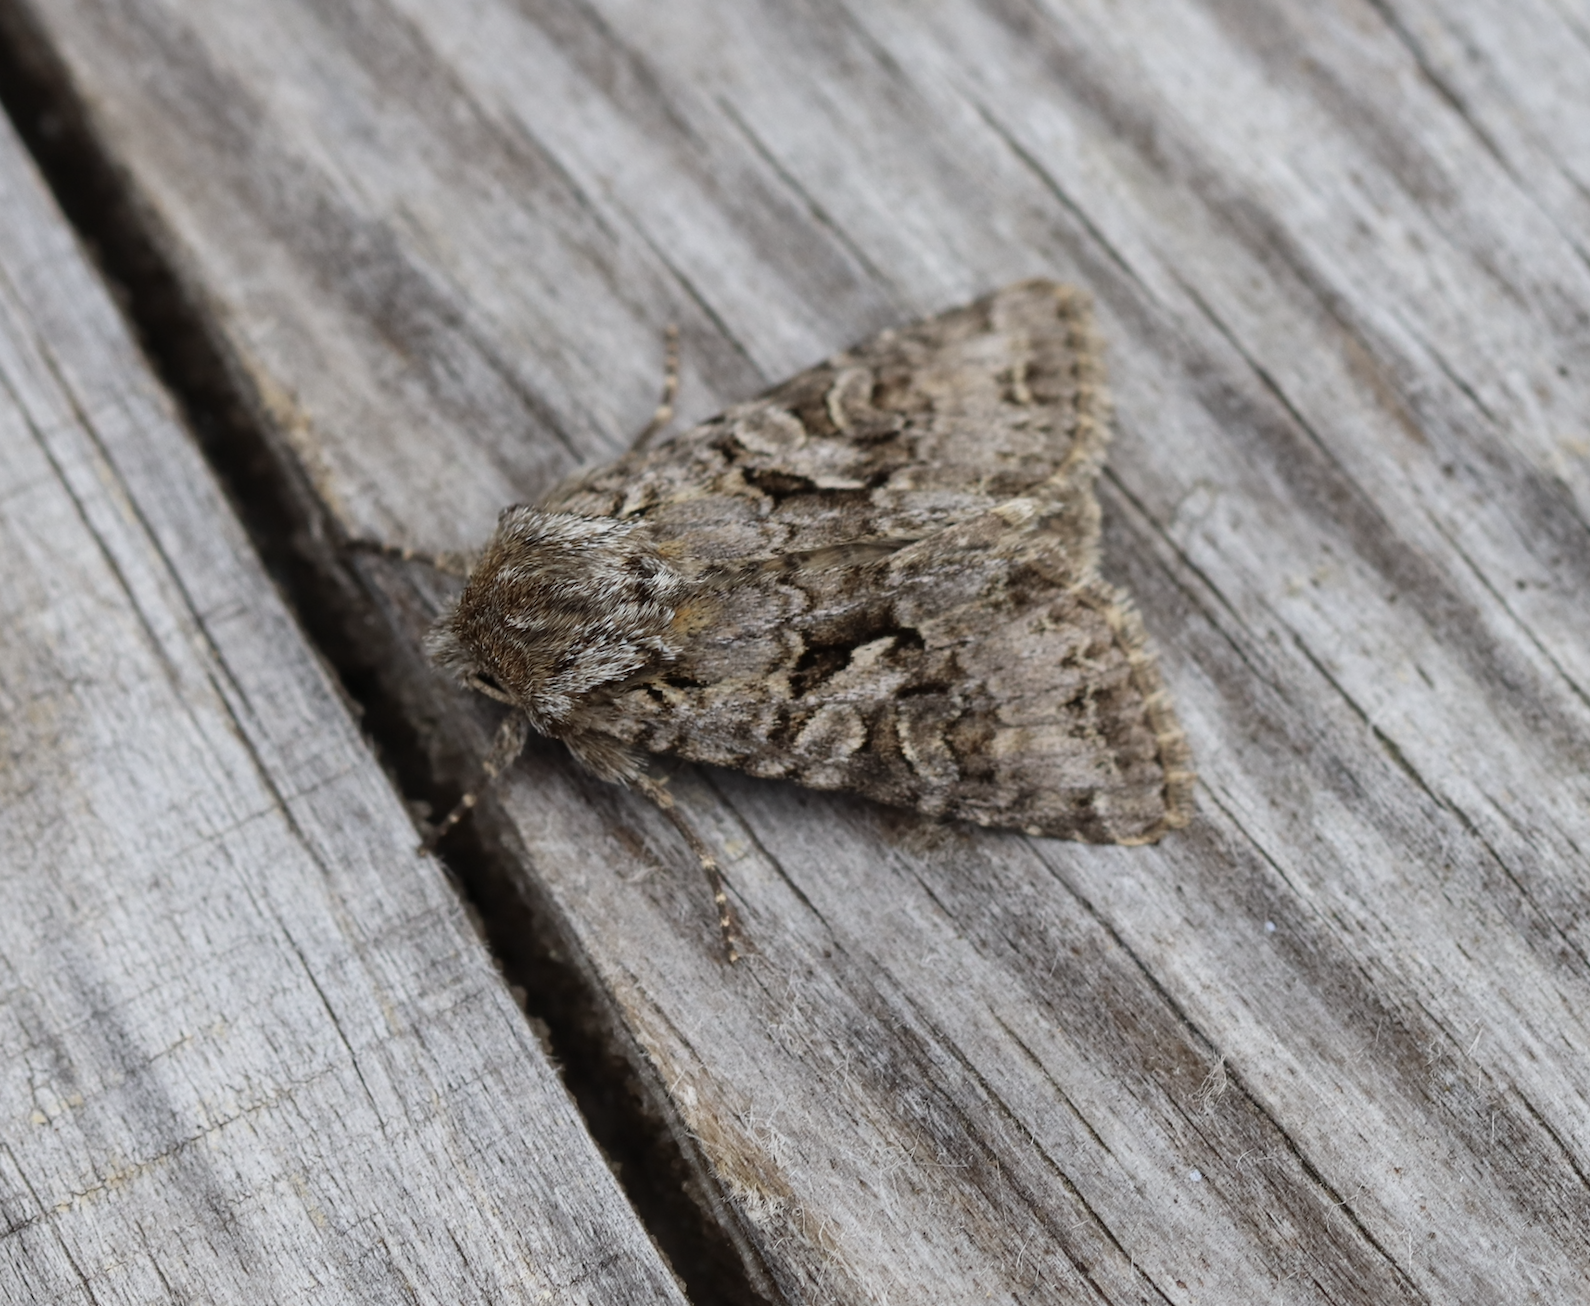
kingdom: Animalia
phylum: Arthropoda
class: Insecta
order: Lepidoptera
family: Noctuidae
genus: Hada
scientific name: Hada plebeja
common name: Shears
